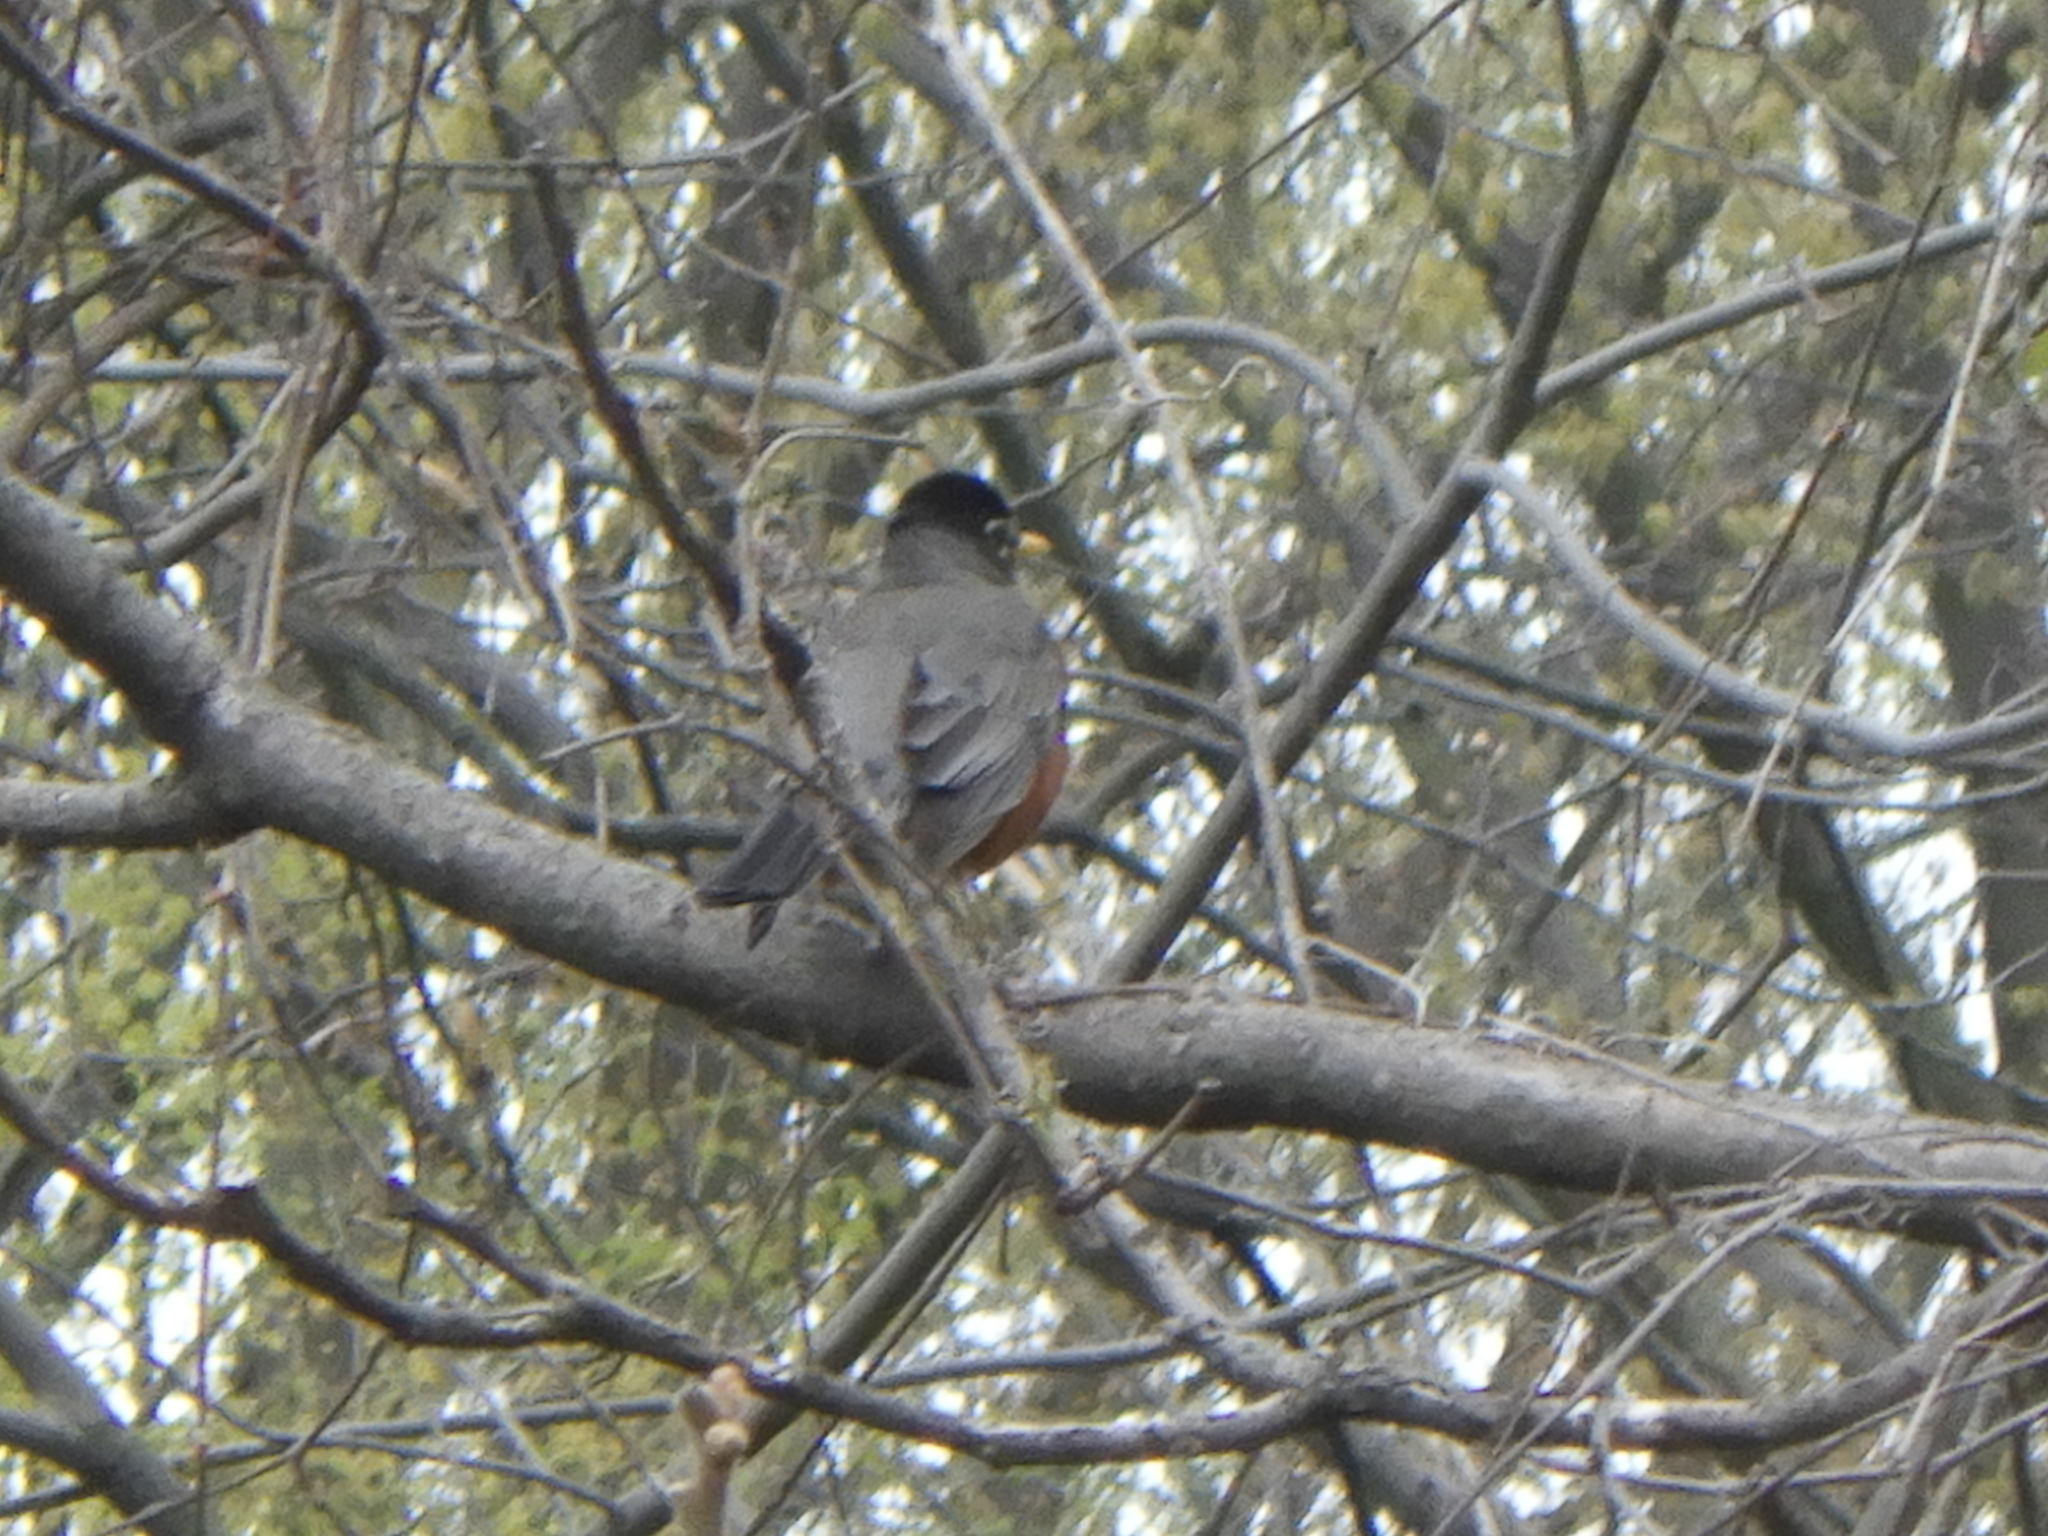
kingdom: Animalia
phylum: Chordata
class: Aves
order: Passeriformes
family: Turdidae
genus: Turdus
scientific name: Turdus migratorius
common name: American robin
